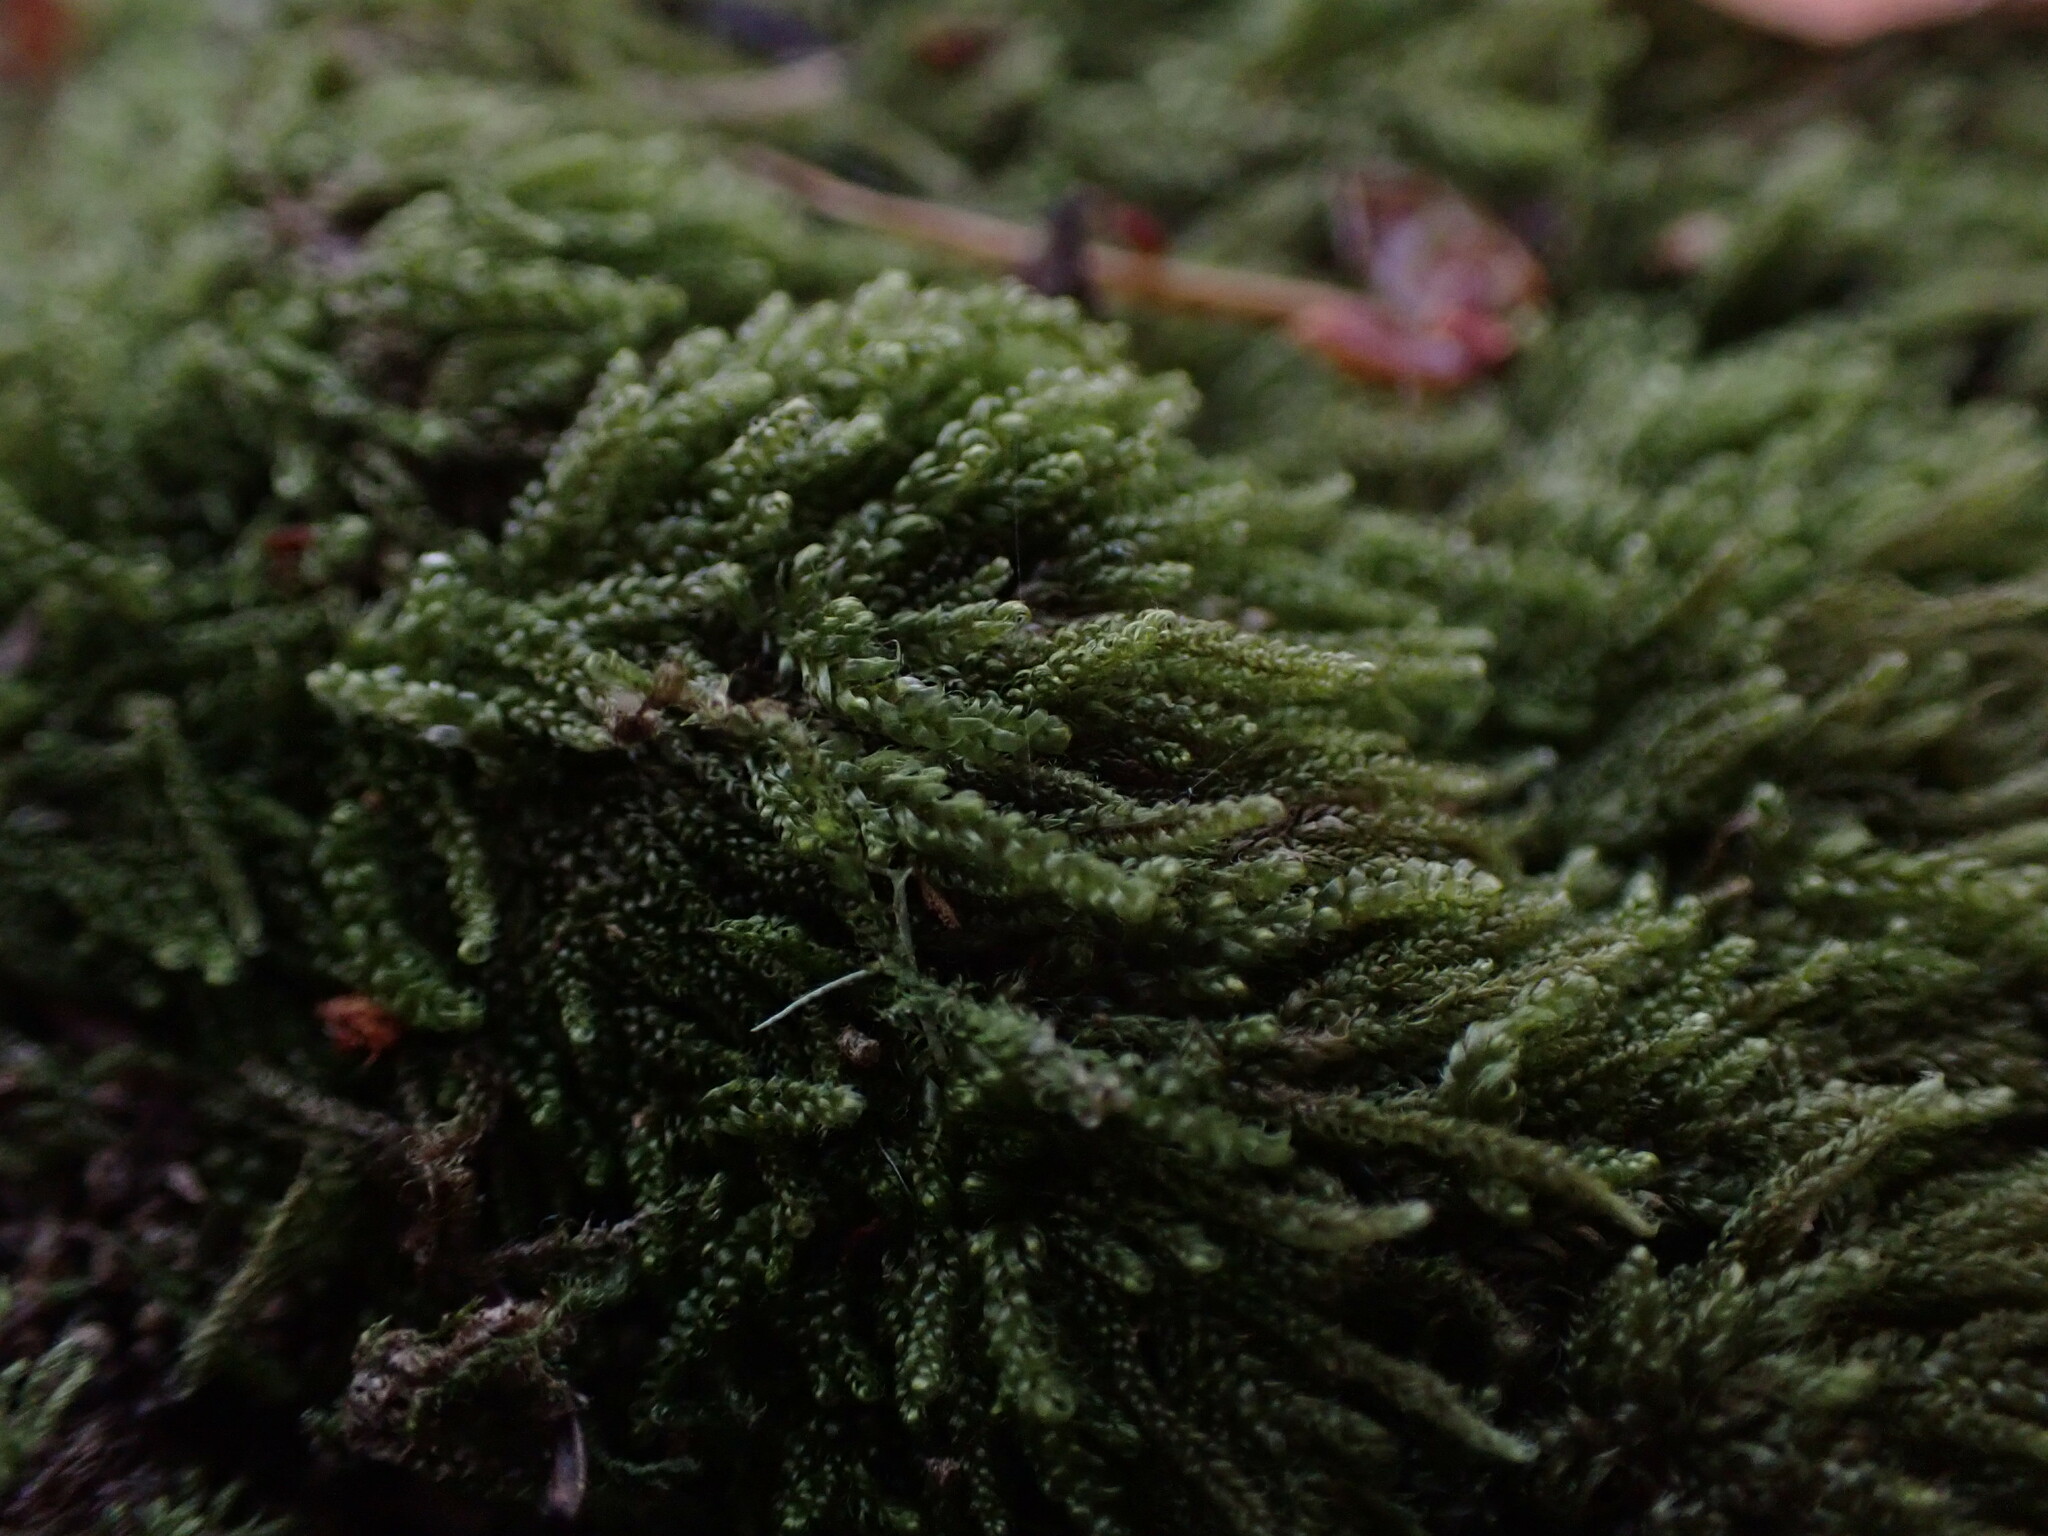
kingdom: Plantae
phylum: Bryophyta
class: Bryopsida
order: Hypnales
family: Pylaisiadelphaceae
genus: Trochophyllohypnum
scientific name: Trochophyllohypnum circinale
